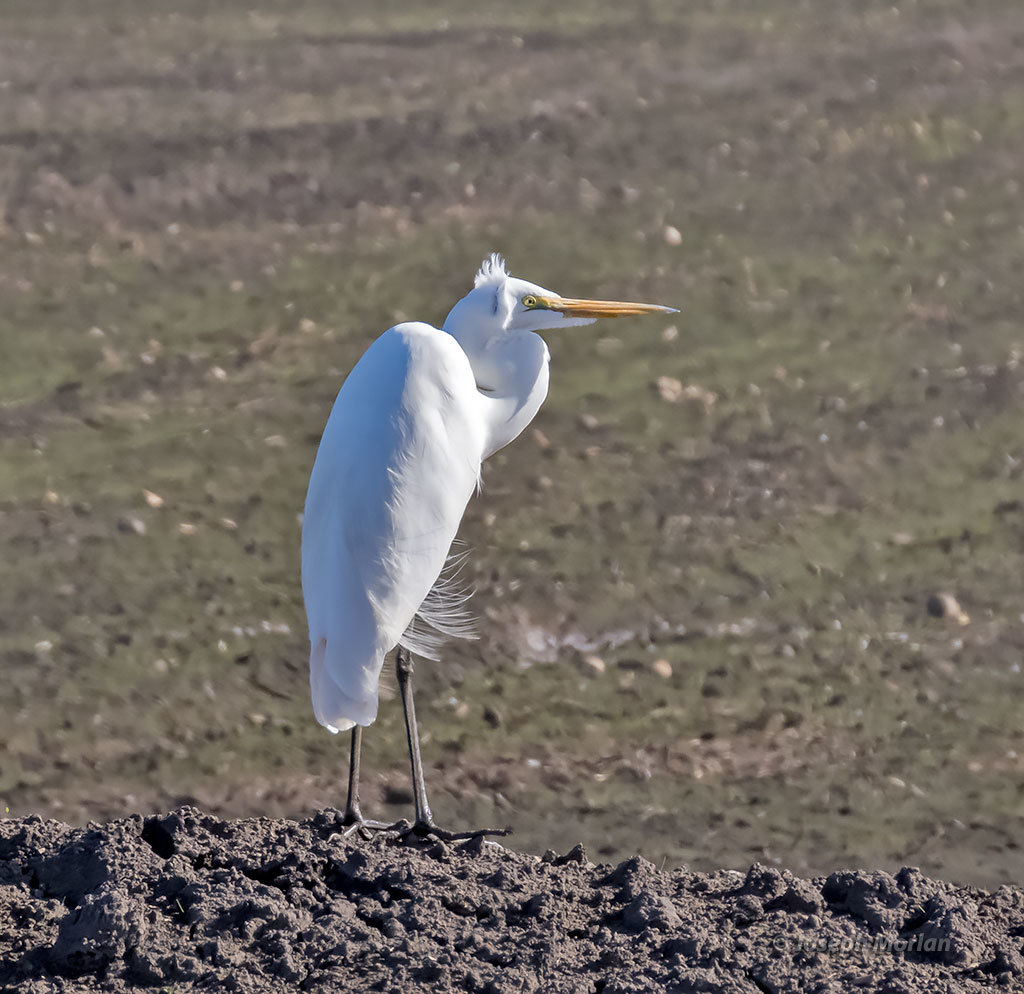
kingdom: Animalia
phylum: Chordata
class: Aves
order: Pelecaniformes
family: Ardeidae
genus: Ardea
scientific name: Ardea alba
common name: Great egret
